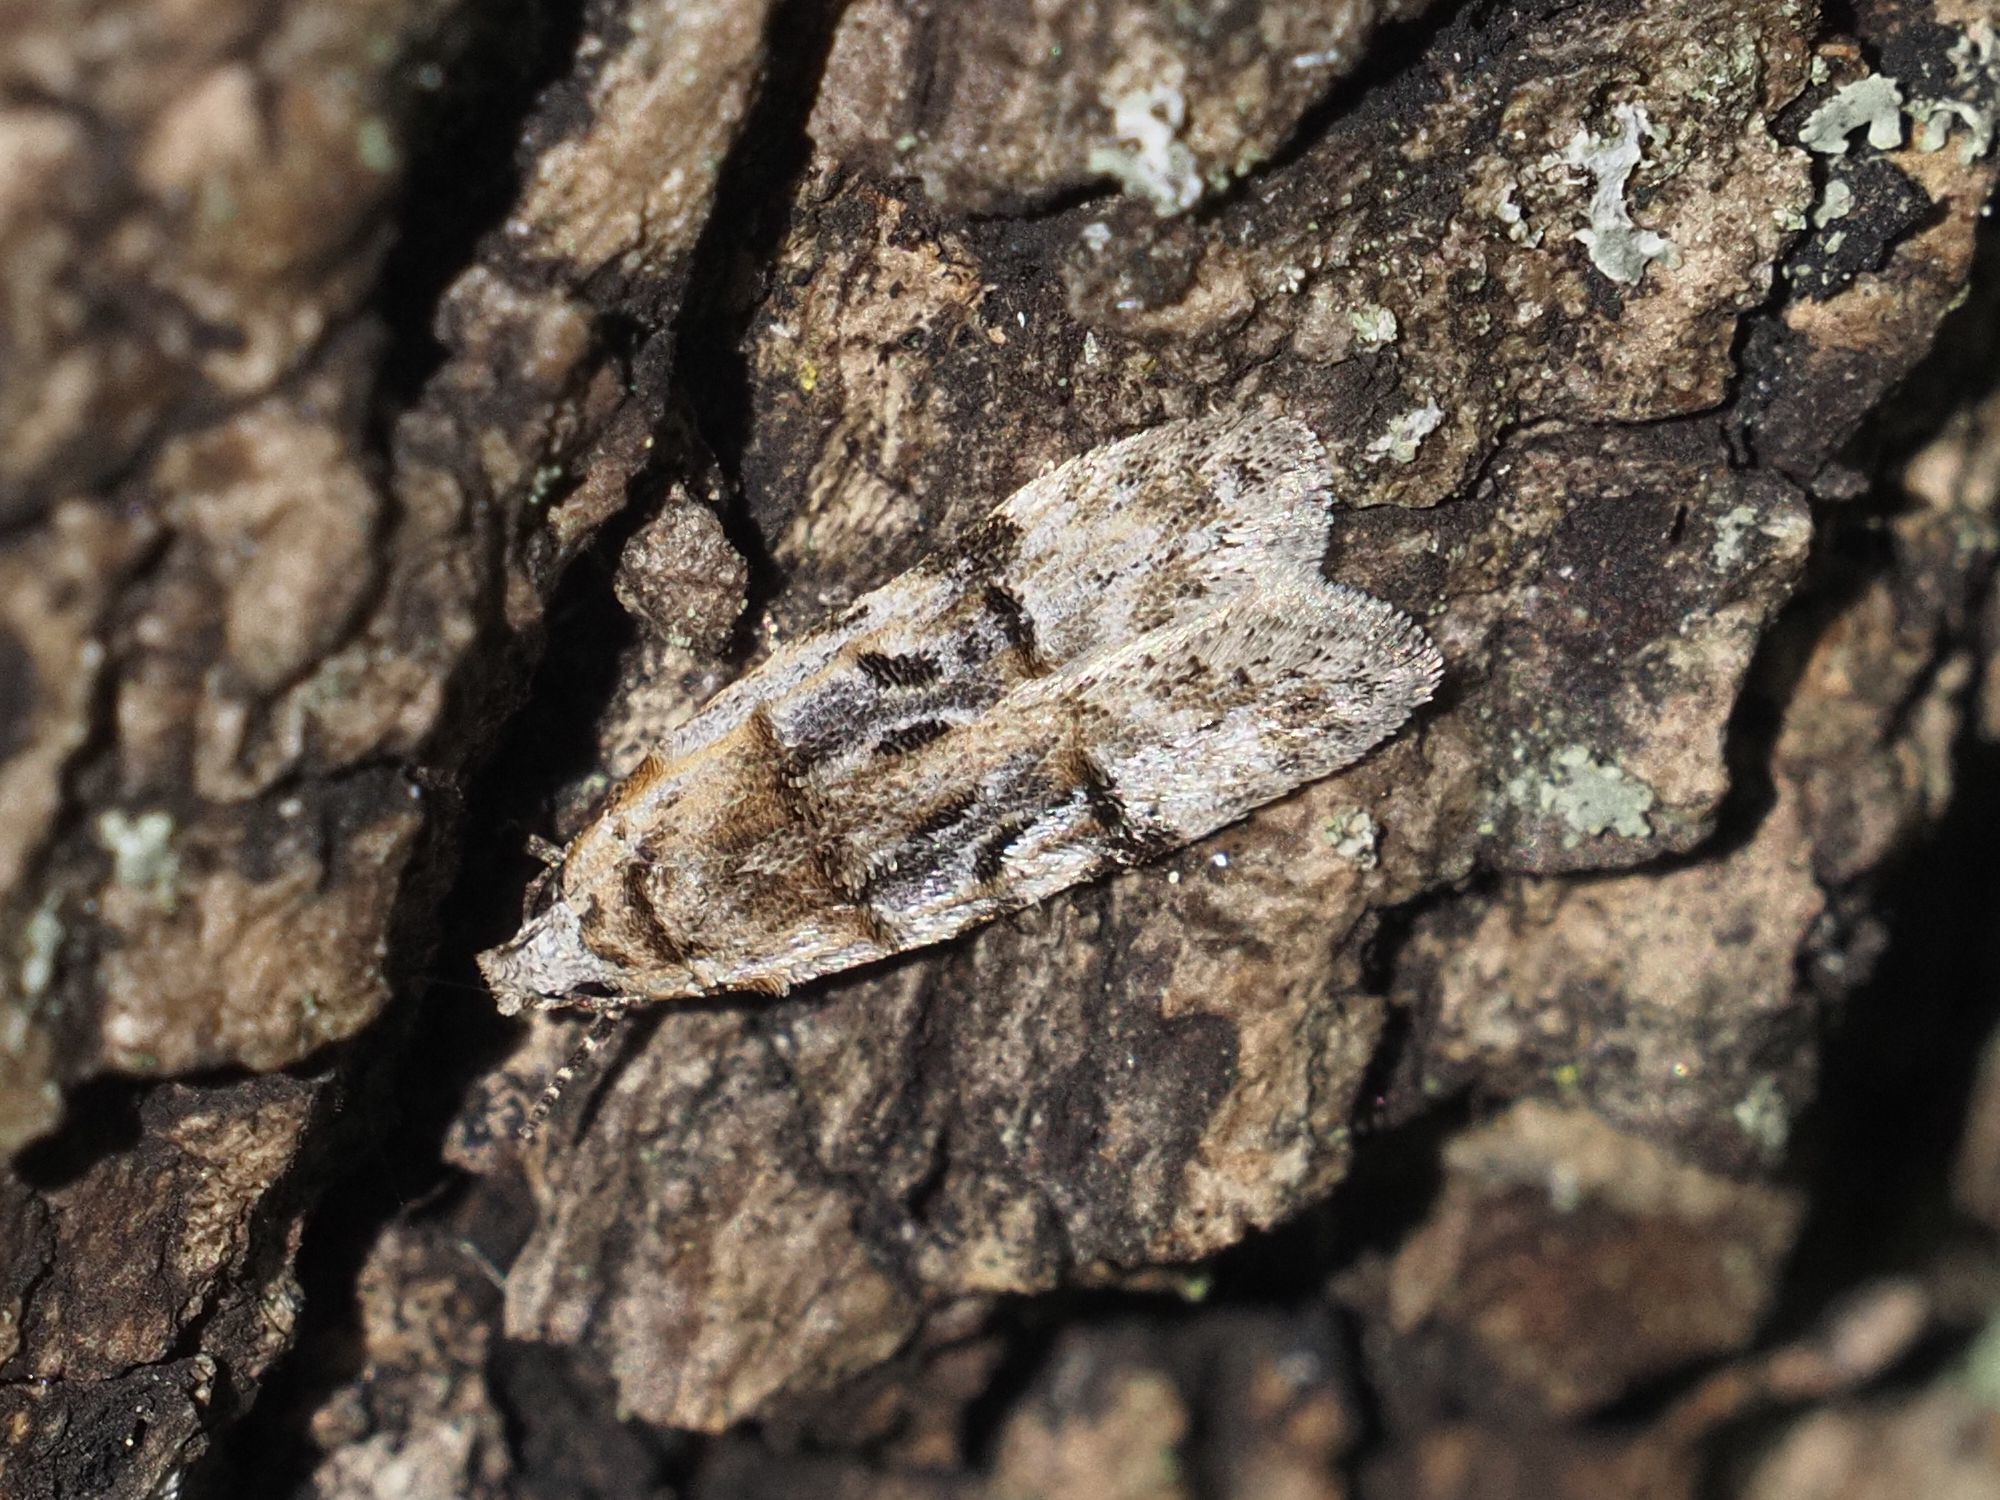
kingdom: Animalia
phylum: Arthropoda
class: Insecta
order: Lepidoptera
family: Gelechiidae
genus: Altenia
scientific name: Altenia scriptella
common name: Horse-shoe groundling
